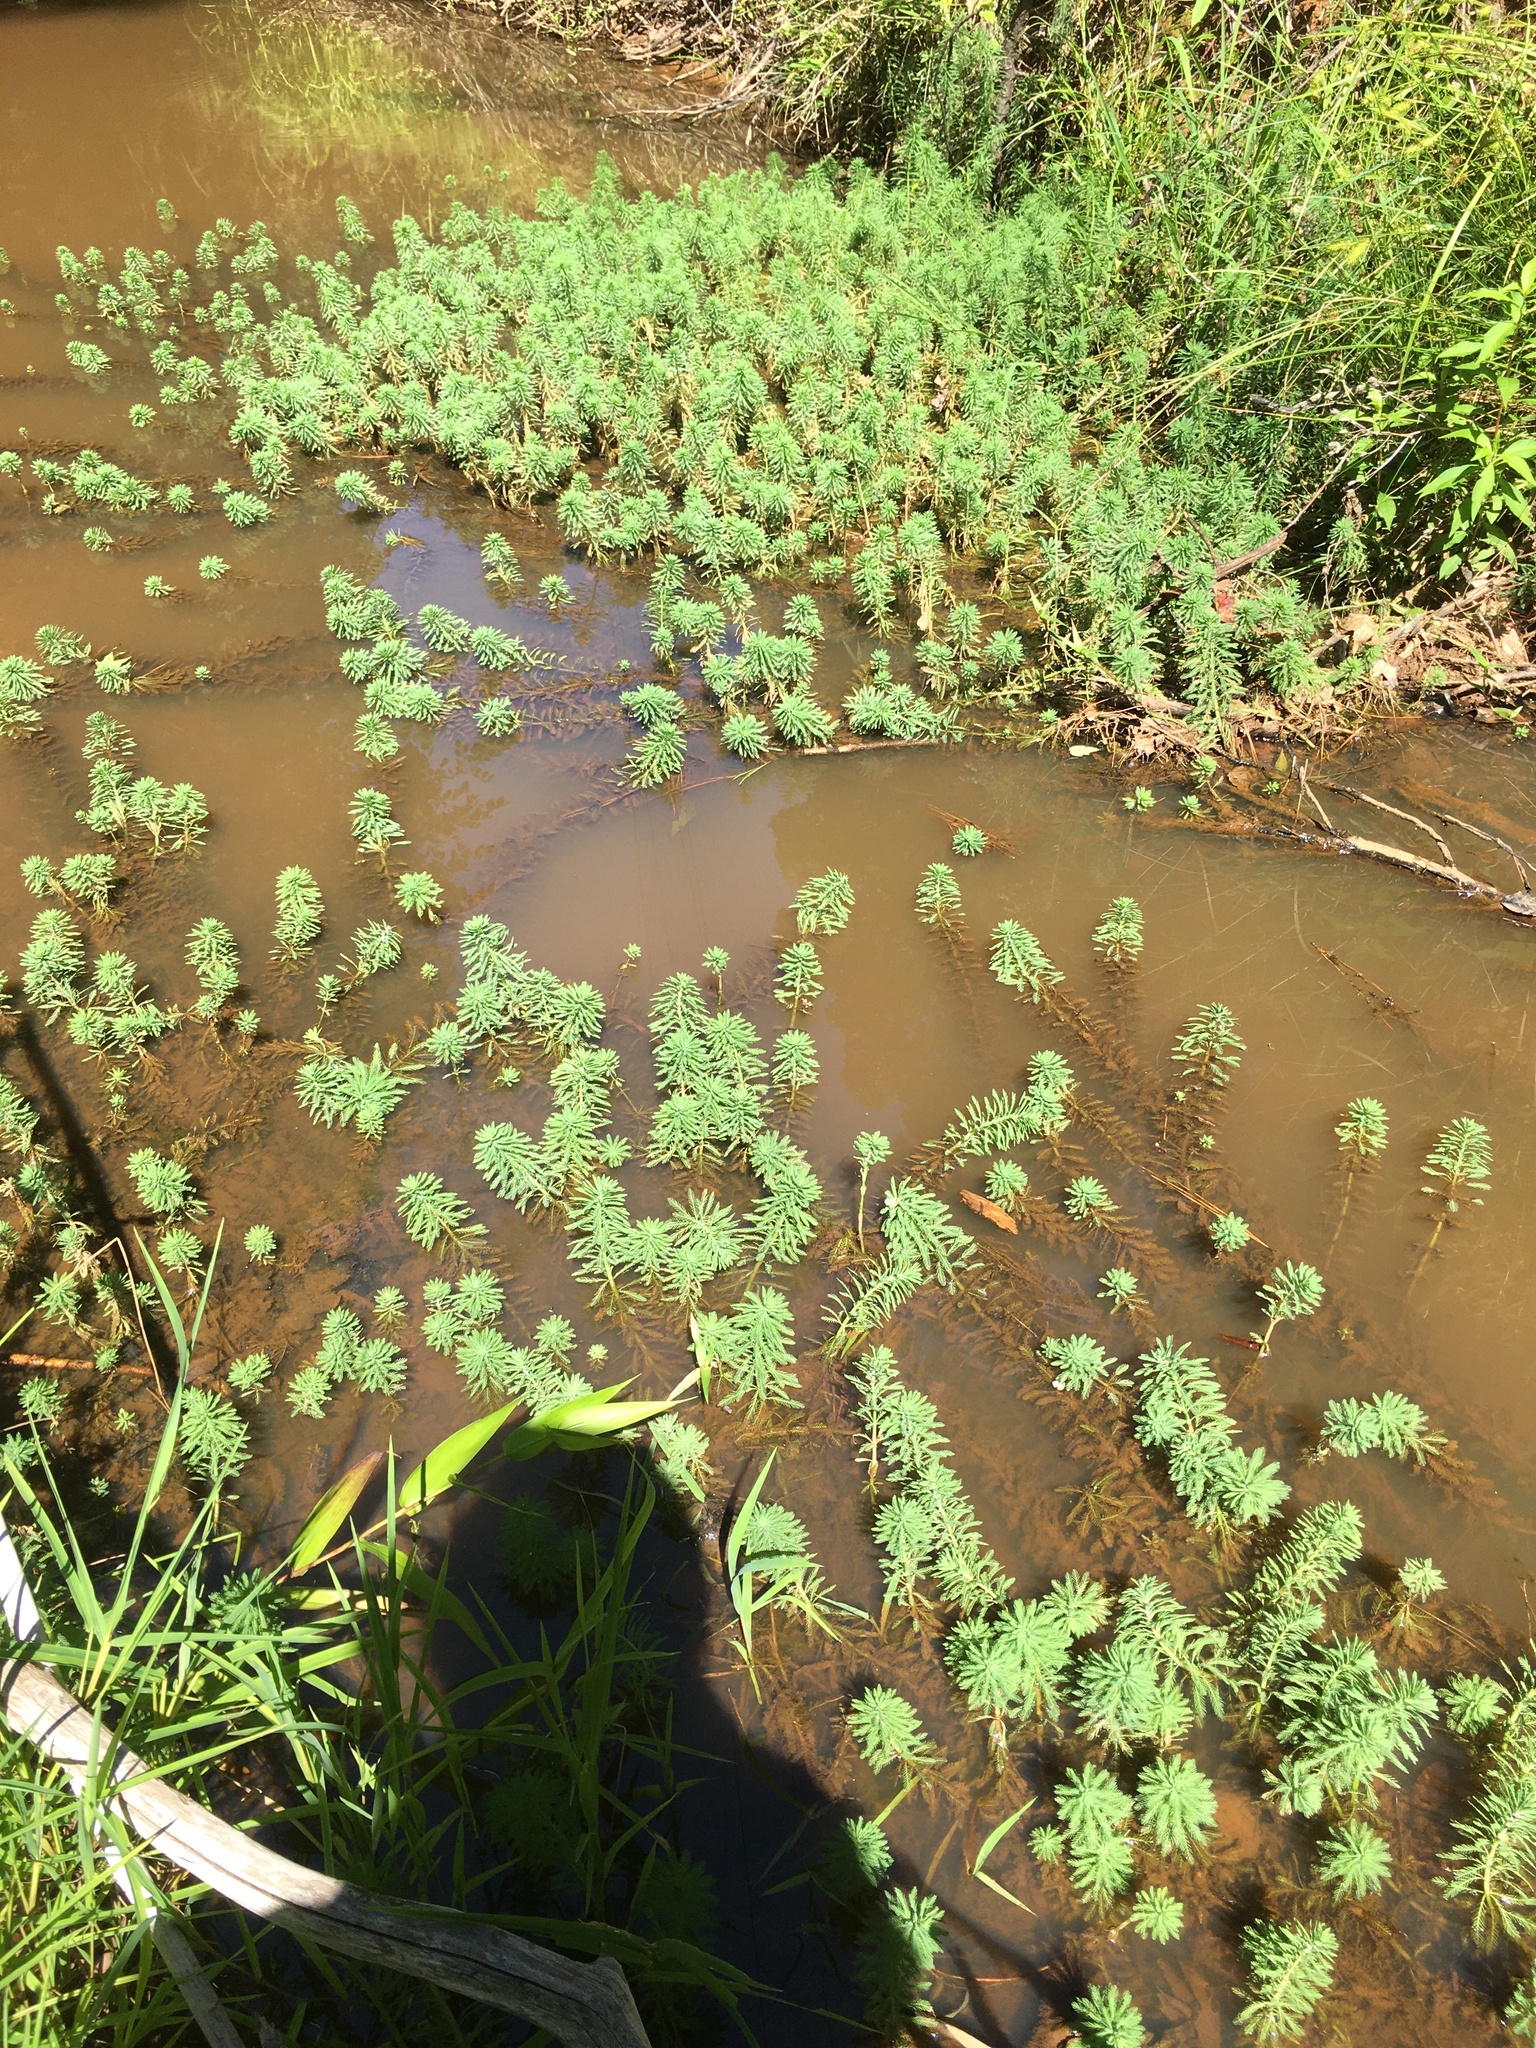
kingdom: Plantae
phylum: Tracheophyta
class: Magnoliopsida
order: Saxifragales
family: Haloragaceae
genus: Myriophyllum
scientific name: Myriophyllum aquaticum
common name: Parrot's feather
